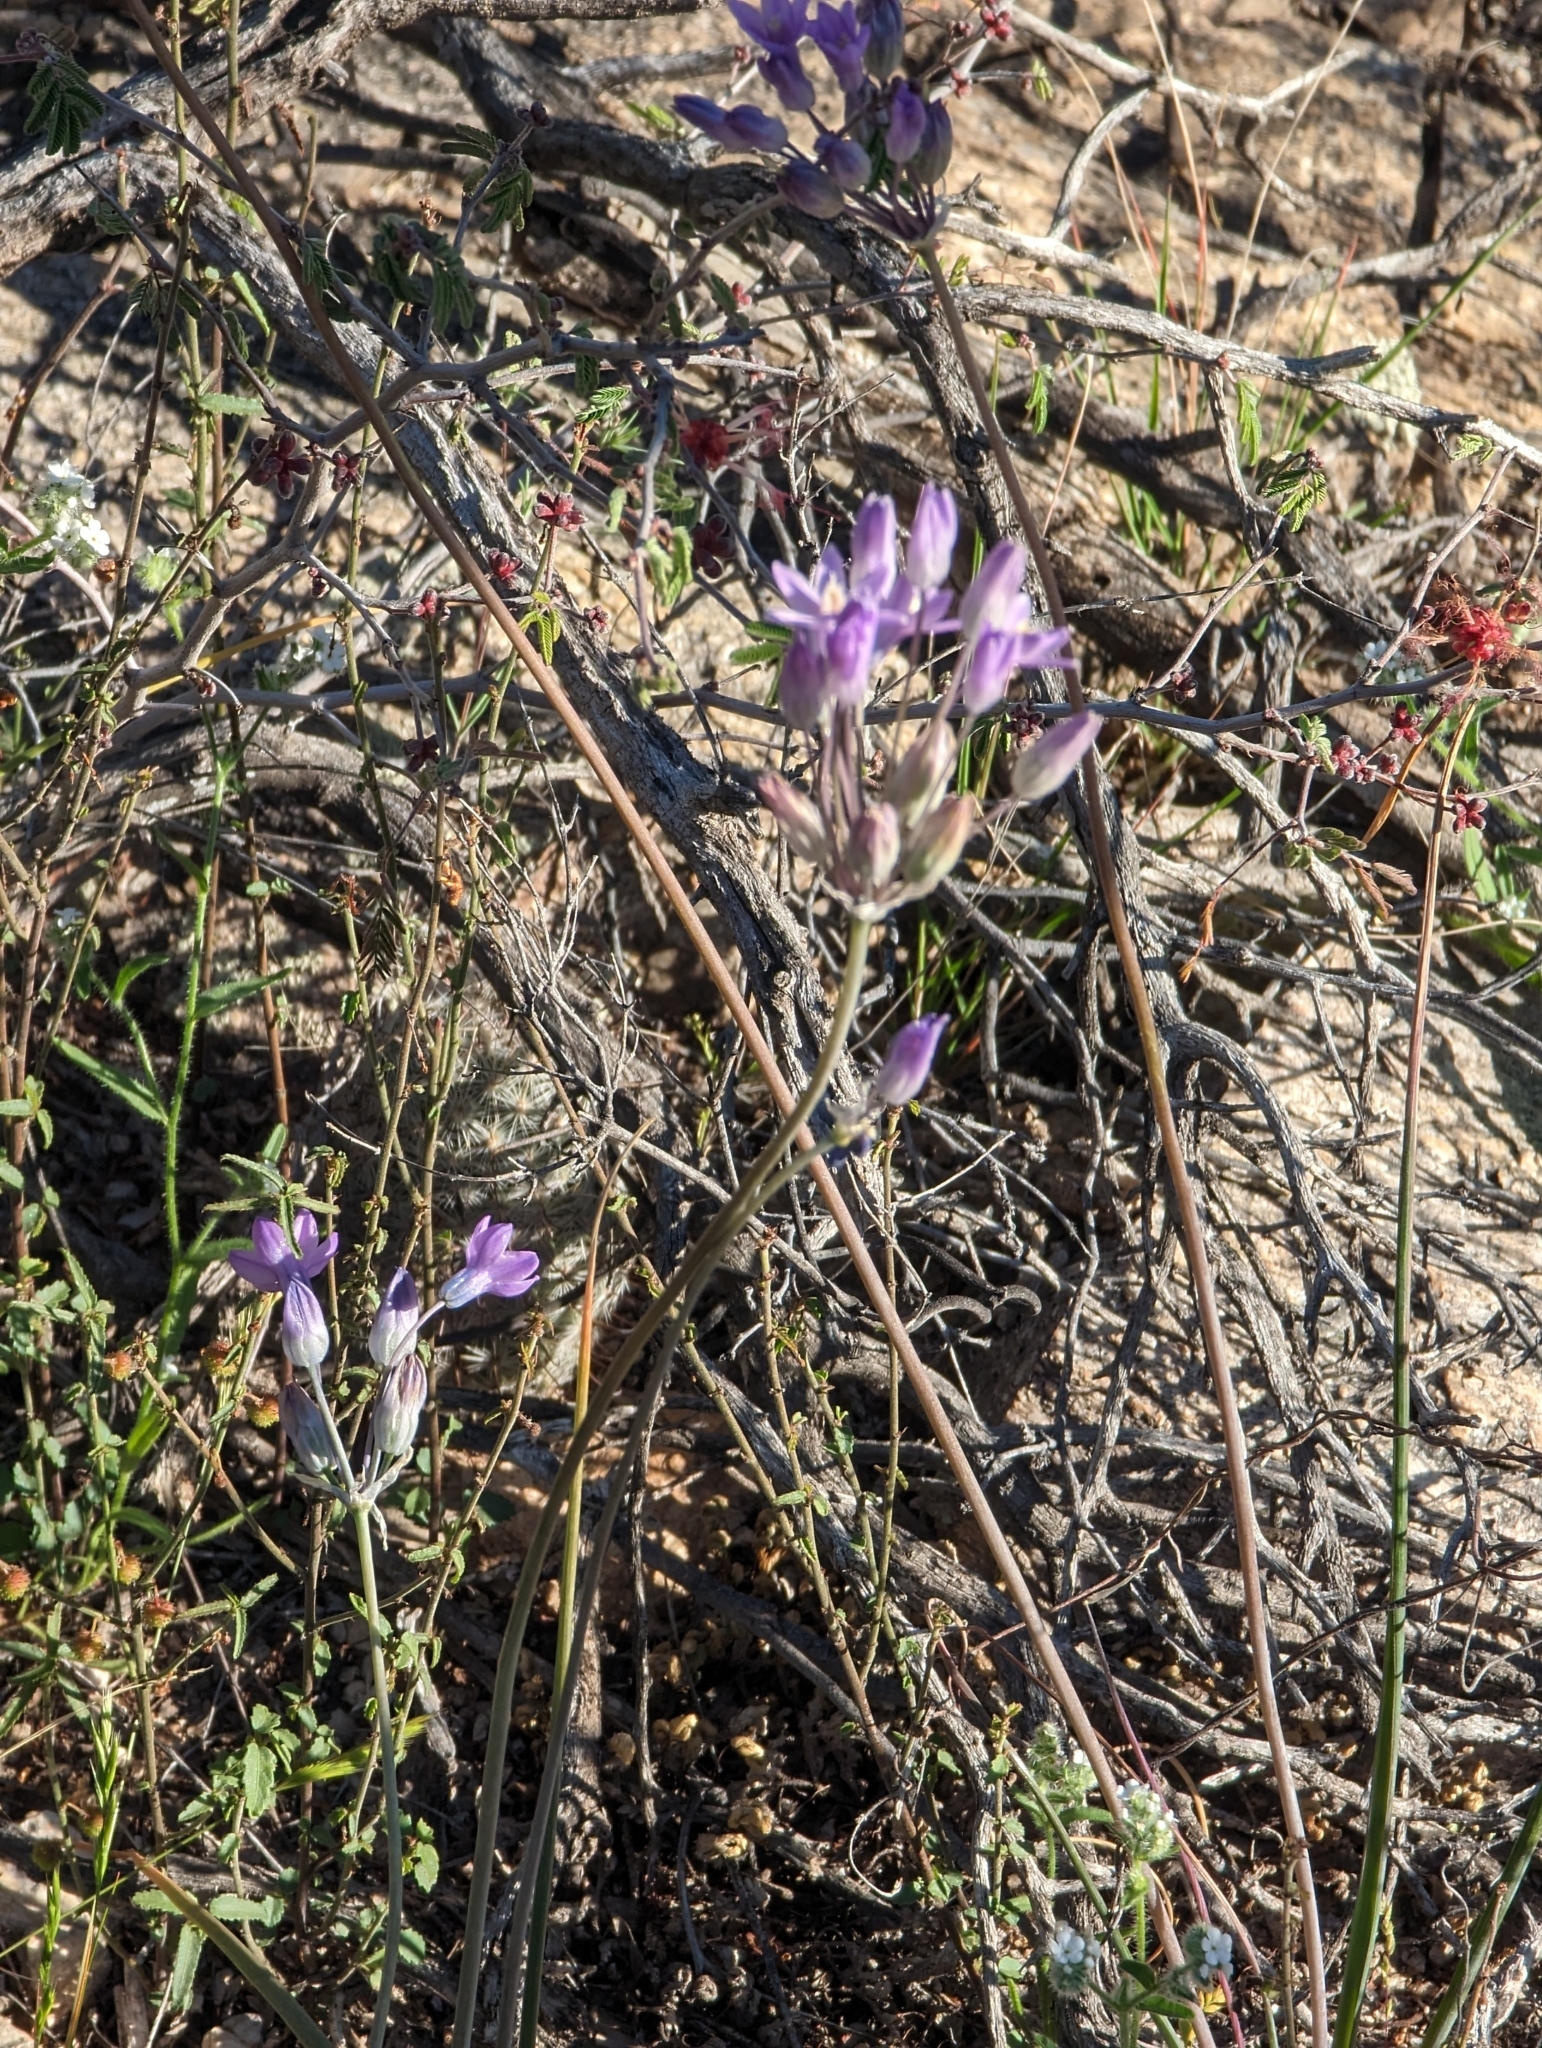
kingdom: Plantae
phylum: Tracheophyta
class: Liliopsida
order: Asparagales
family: Asparagaceae
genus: Dipterostemon
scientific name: Dipterostemon capitatus
